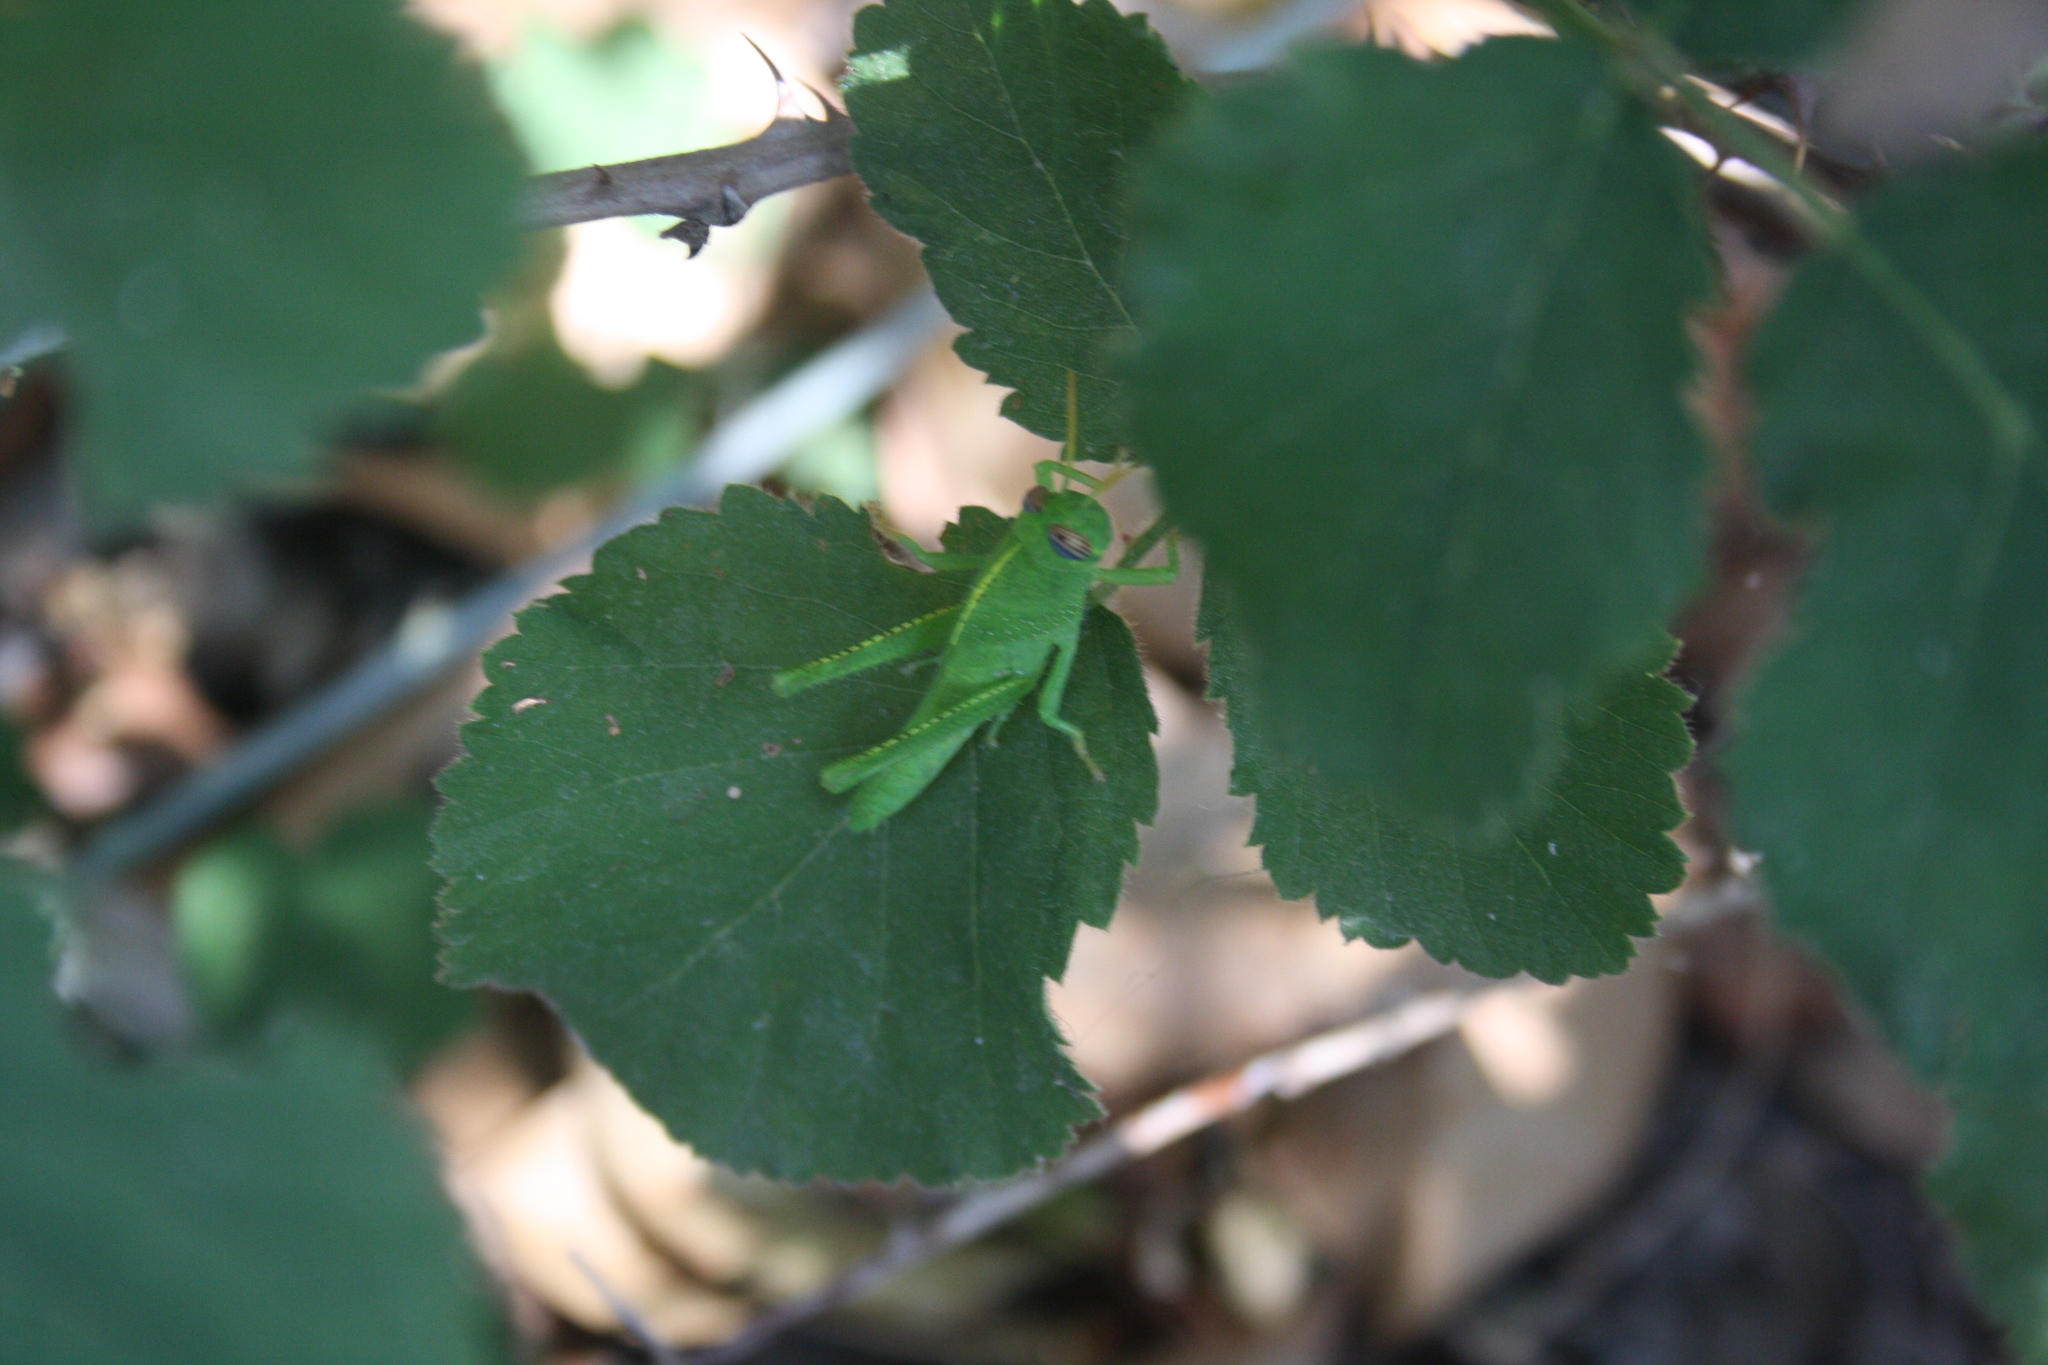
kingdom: Animalia
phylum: Arthropoda
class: Insecta
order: Orthoptera
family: Acrididae
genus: Anacridium
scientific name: Anacridium aegyptium
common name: Egyptian grasshopper
